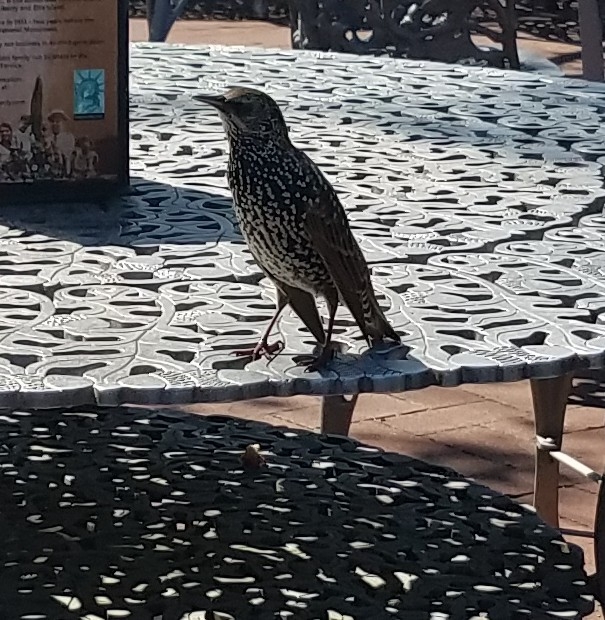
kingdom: Animalia
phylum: Chordata
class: Aves
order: Passeriformes
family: Sturnidae
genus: Sturnus
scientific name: Sturnus vulgaris
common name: Common starling
